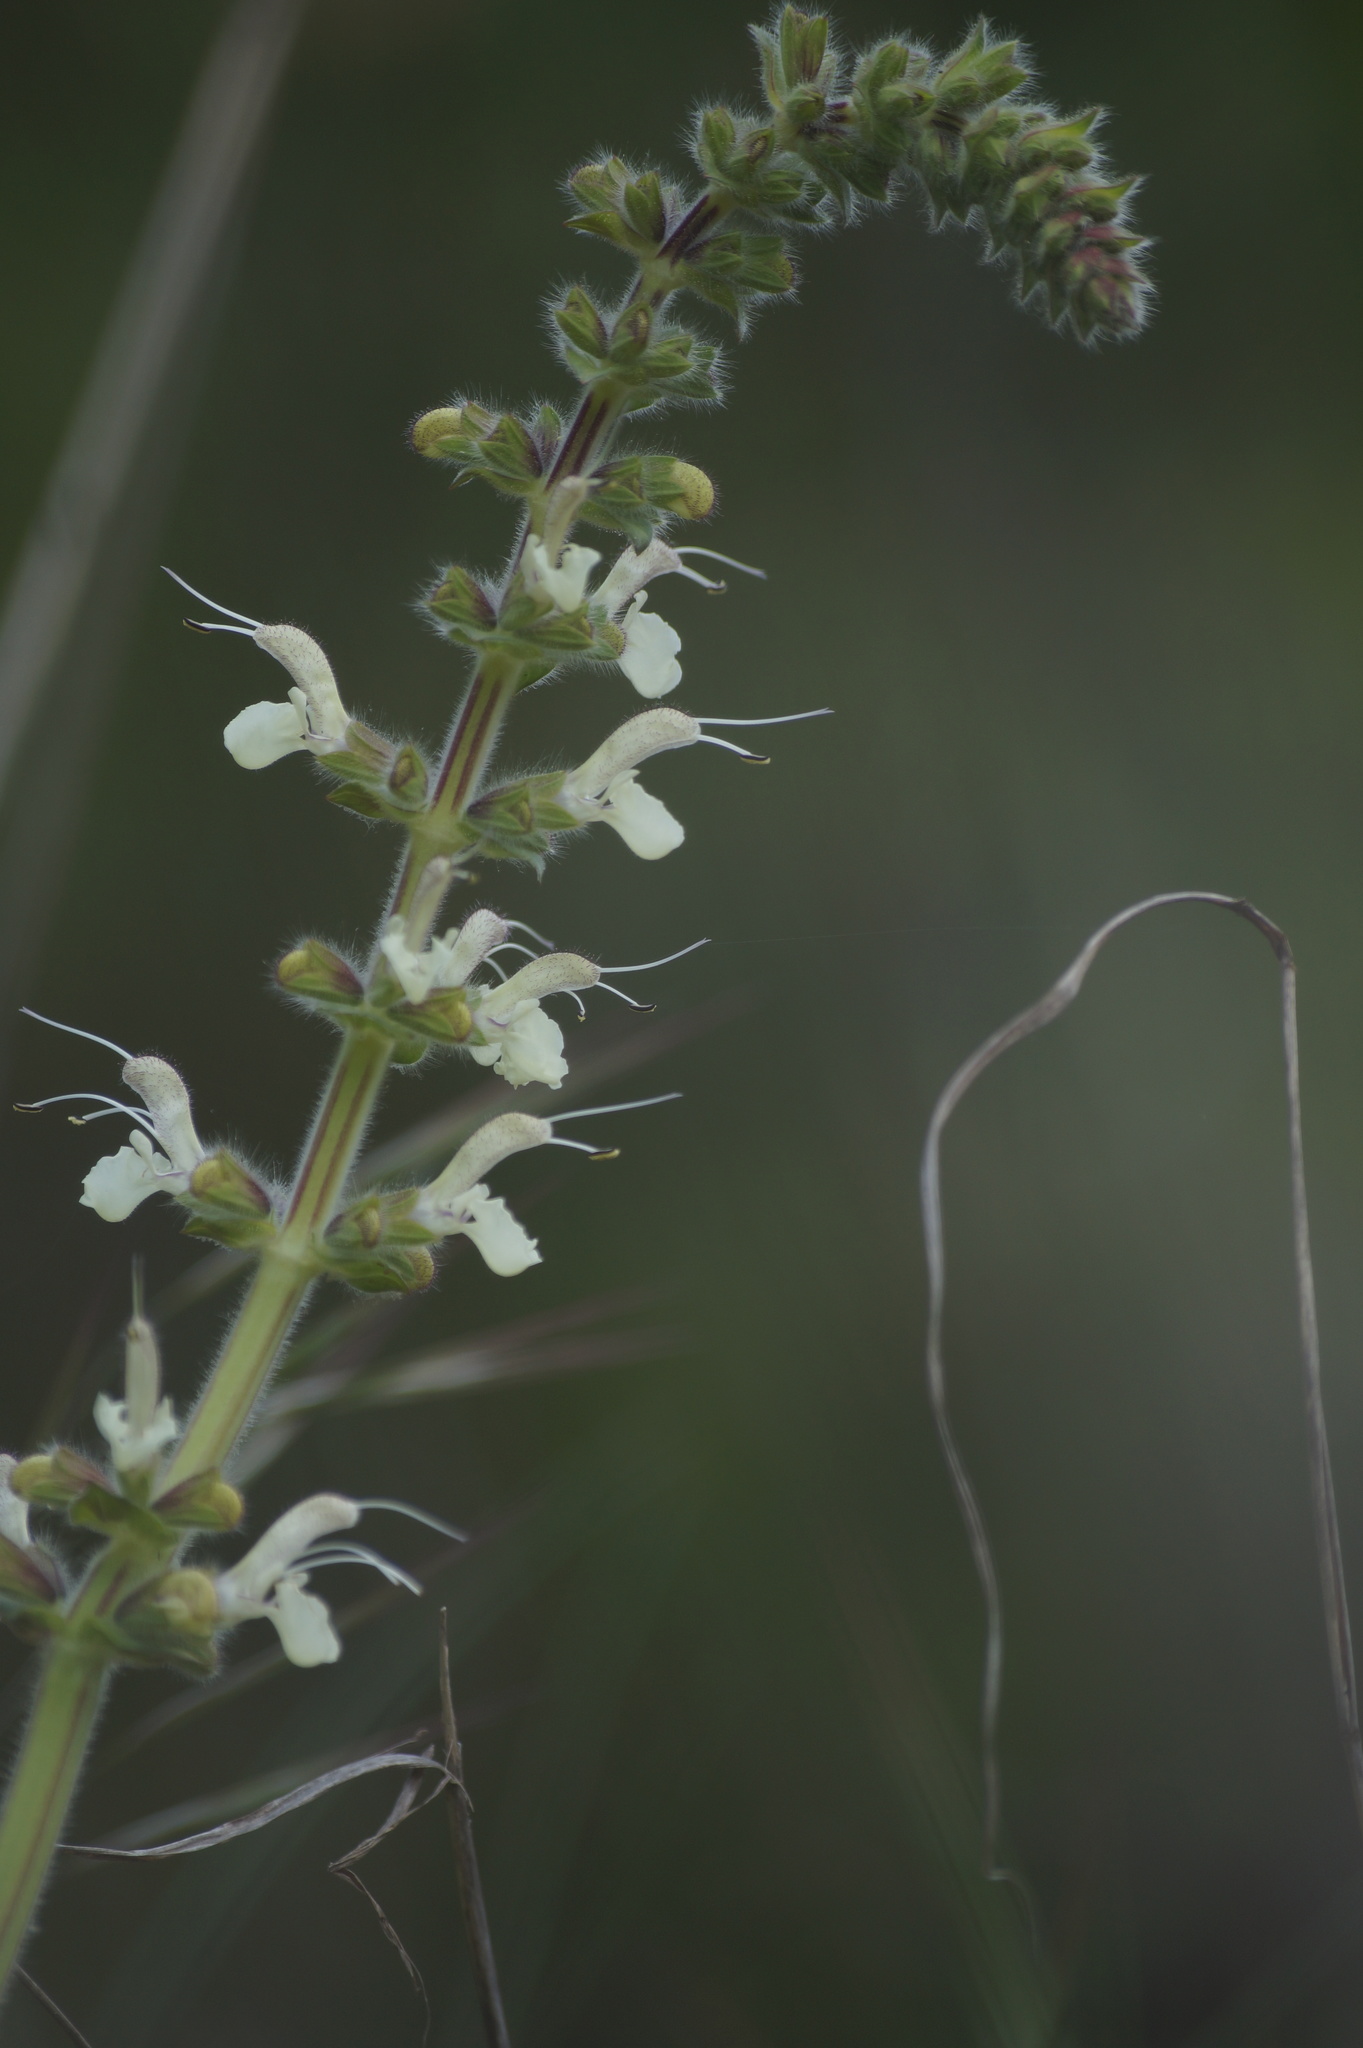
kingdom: Plantae
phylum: Tracheophyta
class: Magnoliopsida
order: Lamiales
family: Lamiaceae
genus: Salvia
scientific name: Salvia austriaca
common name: Austrian sage
